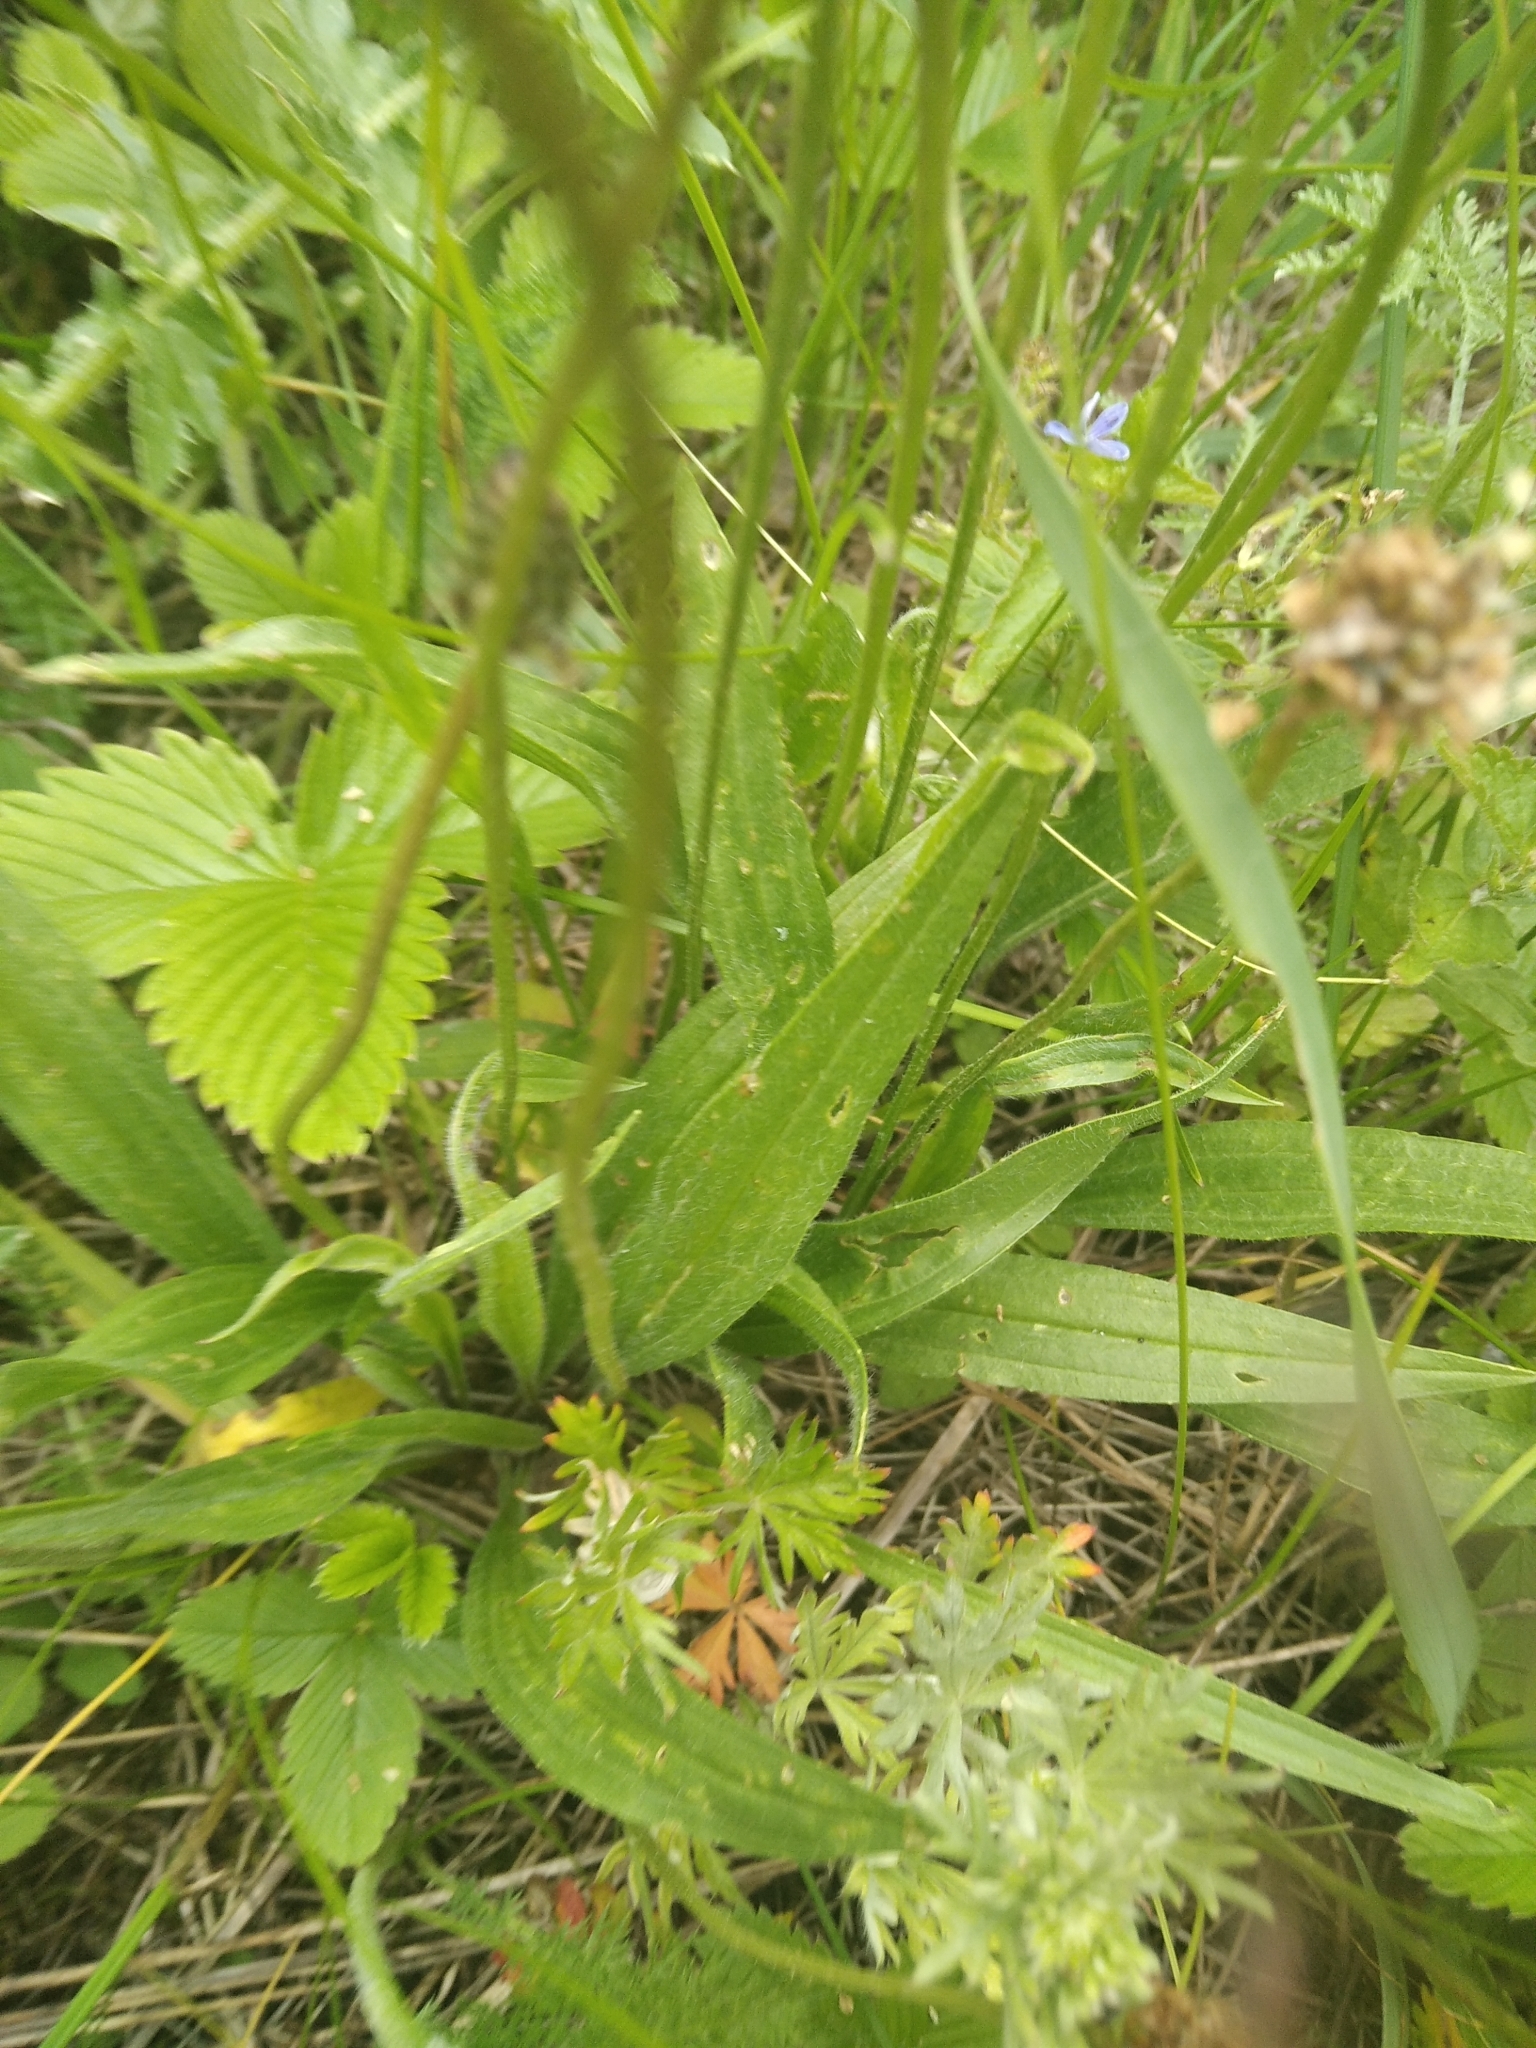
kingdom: Plantae
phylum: Tracheophyta
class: Magnoliopsida
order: Lamiales
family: Plantaginaceae
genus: Plantago
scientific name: Plantago lanceolata
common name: Ribwort plantain
